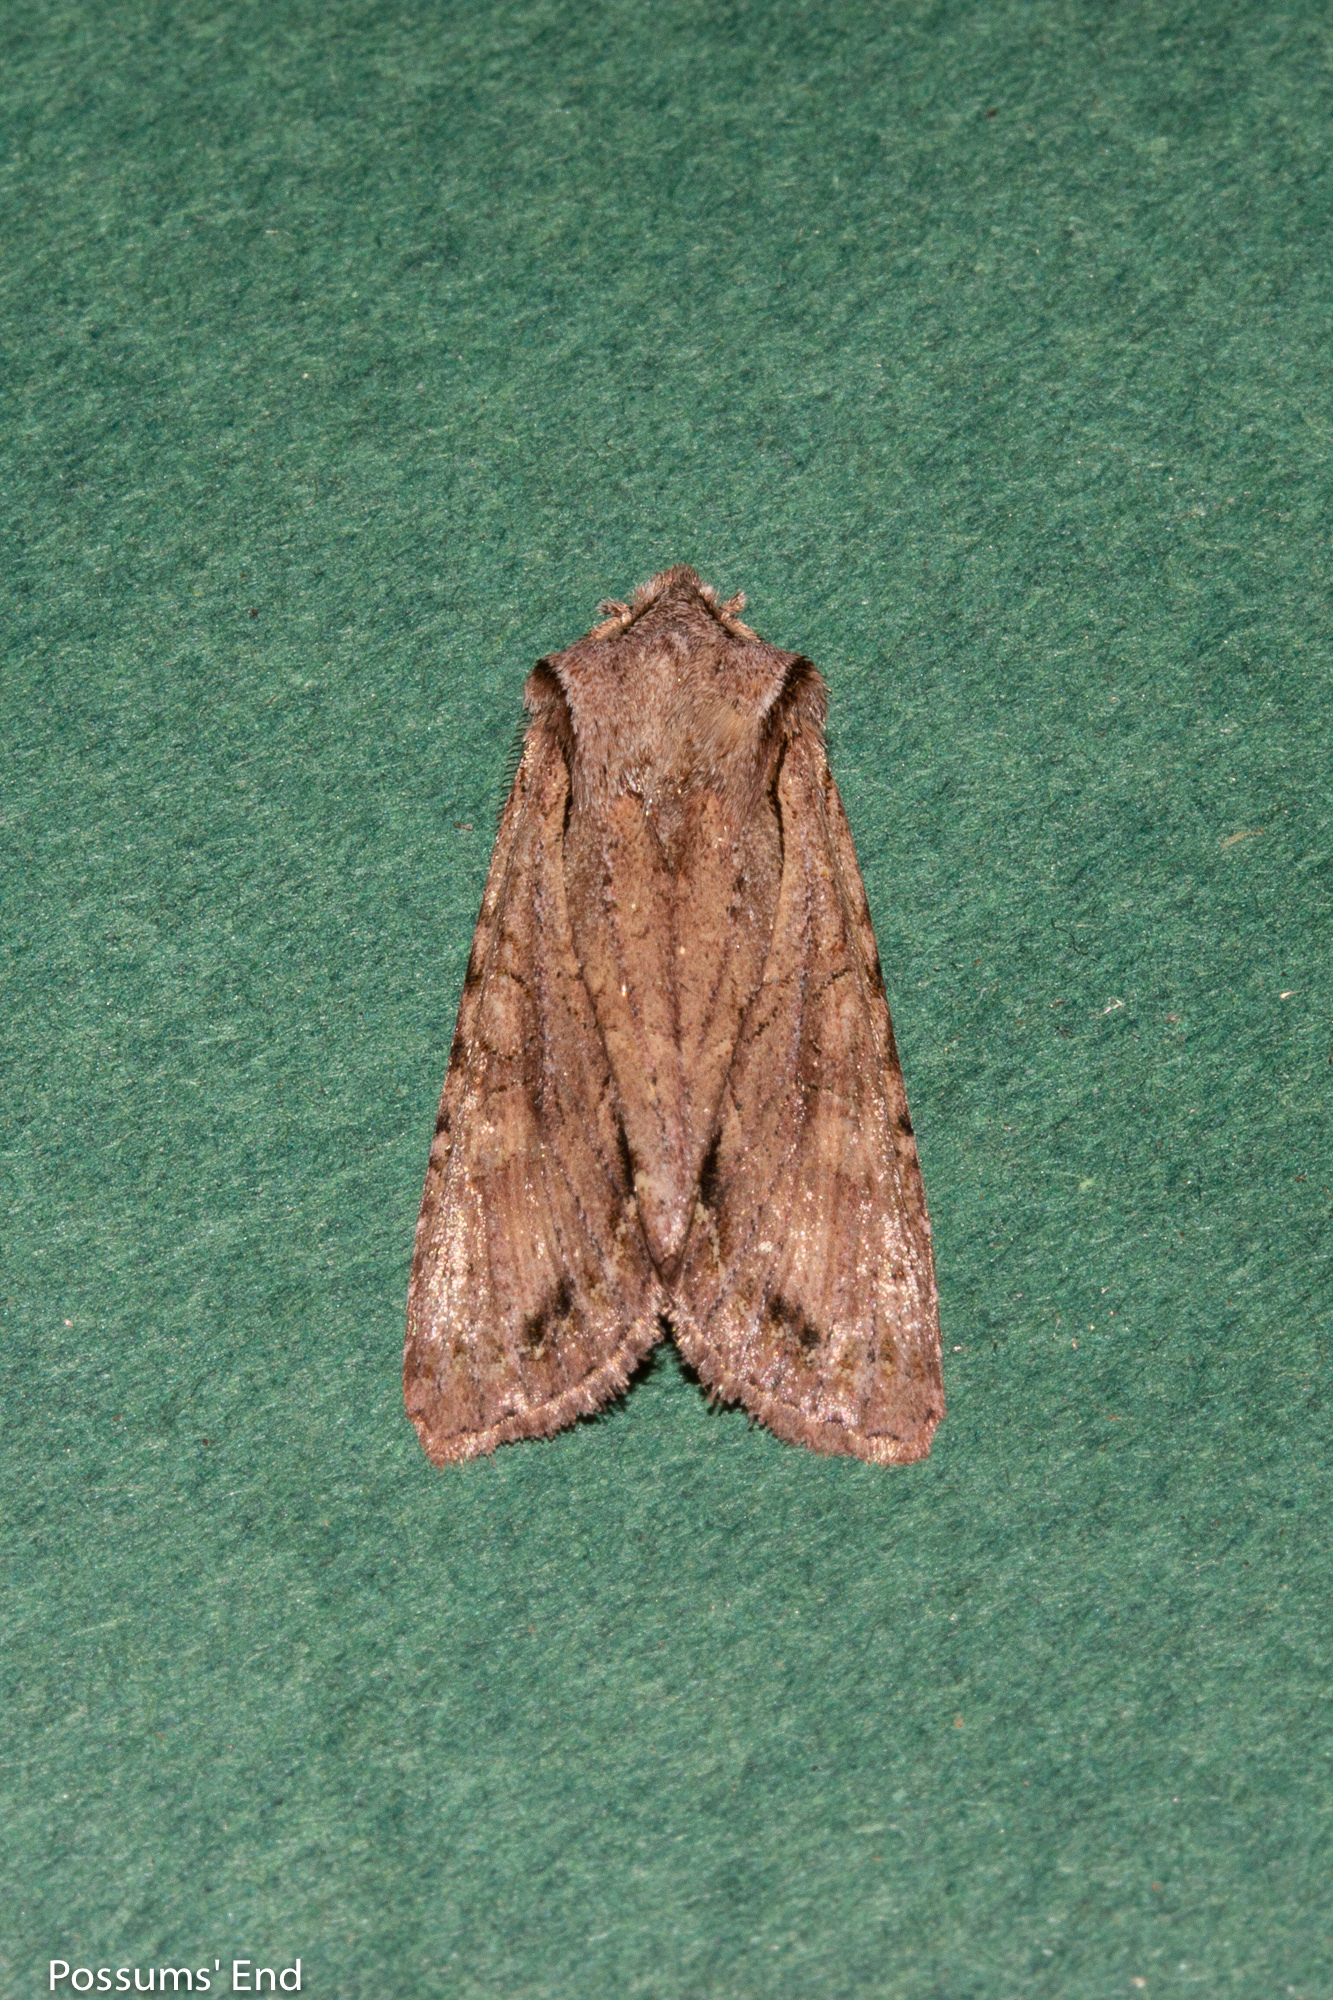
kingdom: Animalia
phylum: Arthropoda
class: Insecta
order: Lepidoptera
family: Noctuidae
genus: Ichneutica
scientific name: Ichneutica
